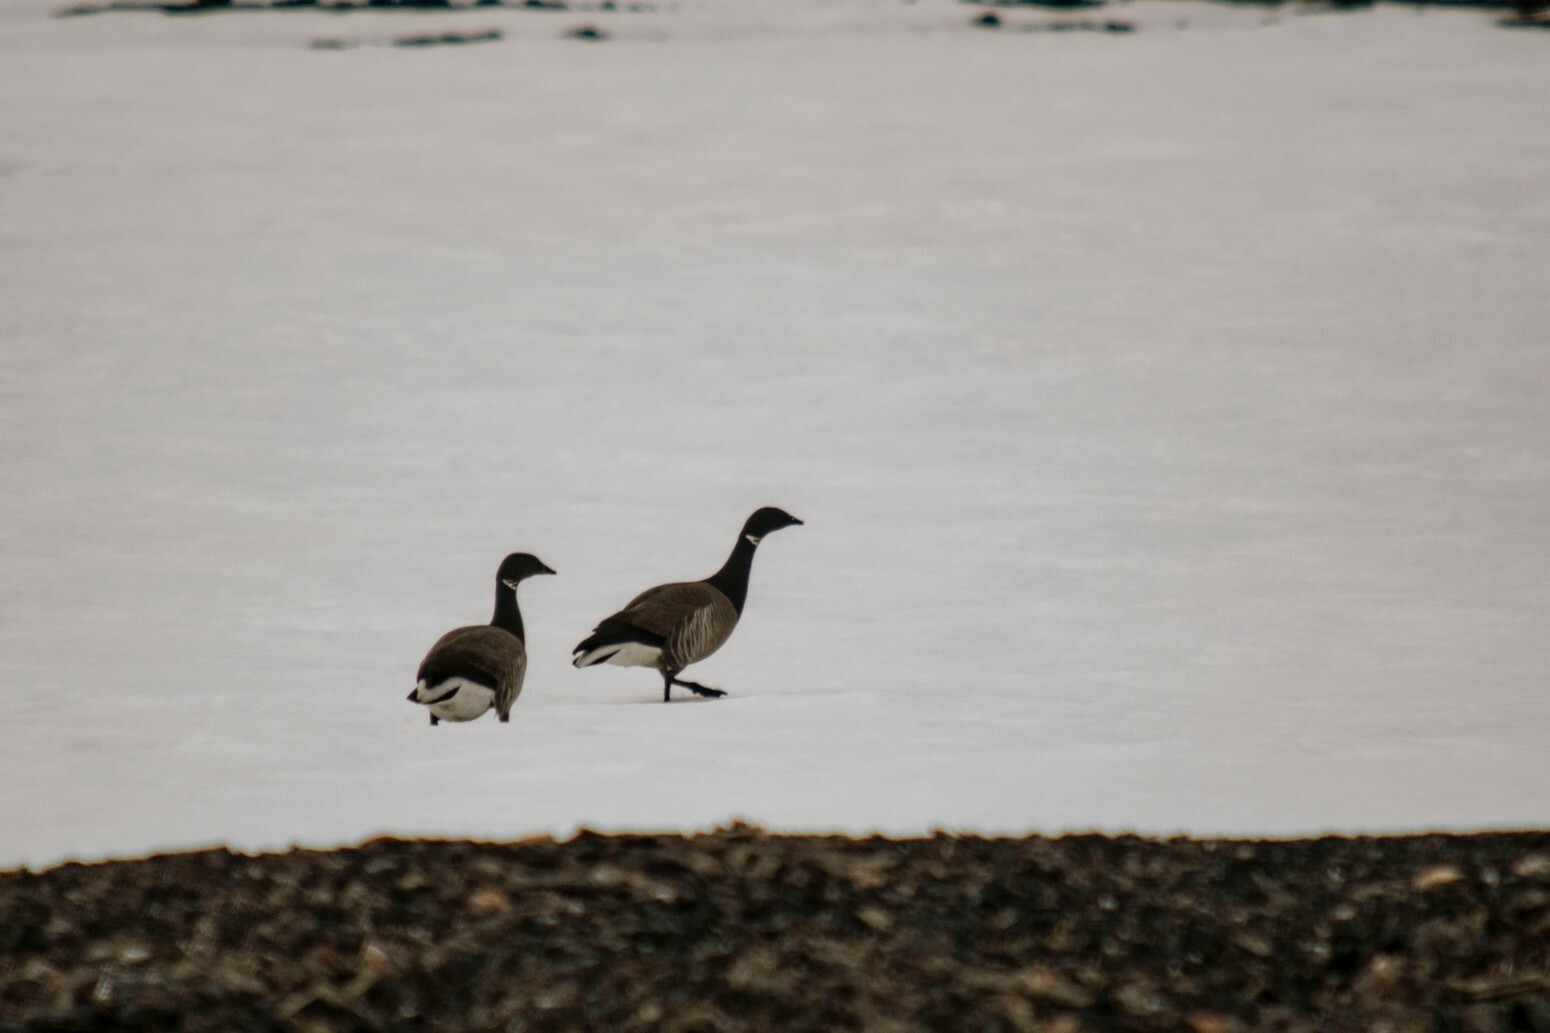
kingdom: Animalia
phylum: Chordata
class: Aves
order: Anseriformes
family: Anatidae
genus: Branta
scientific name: Branta bernicla
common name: Brant goose
